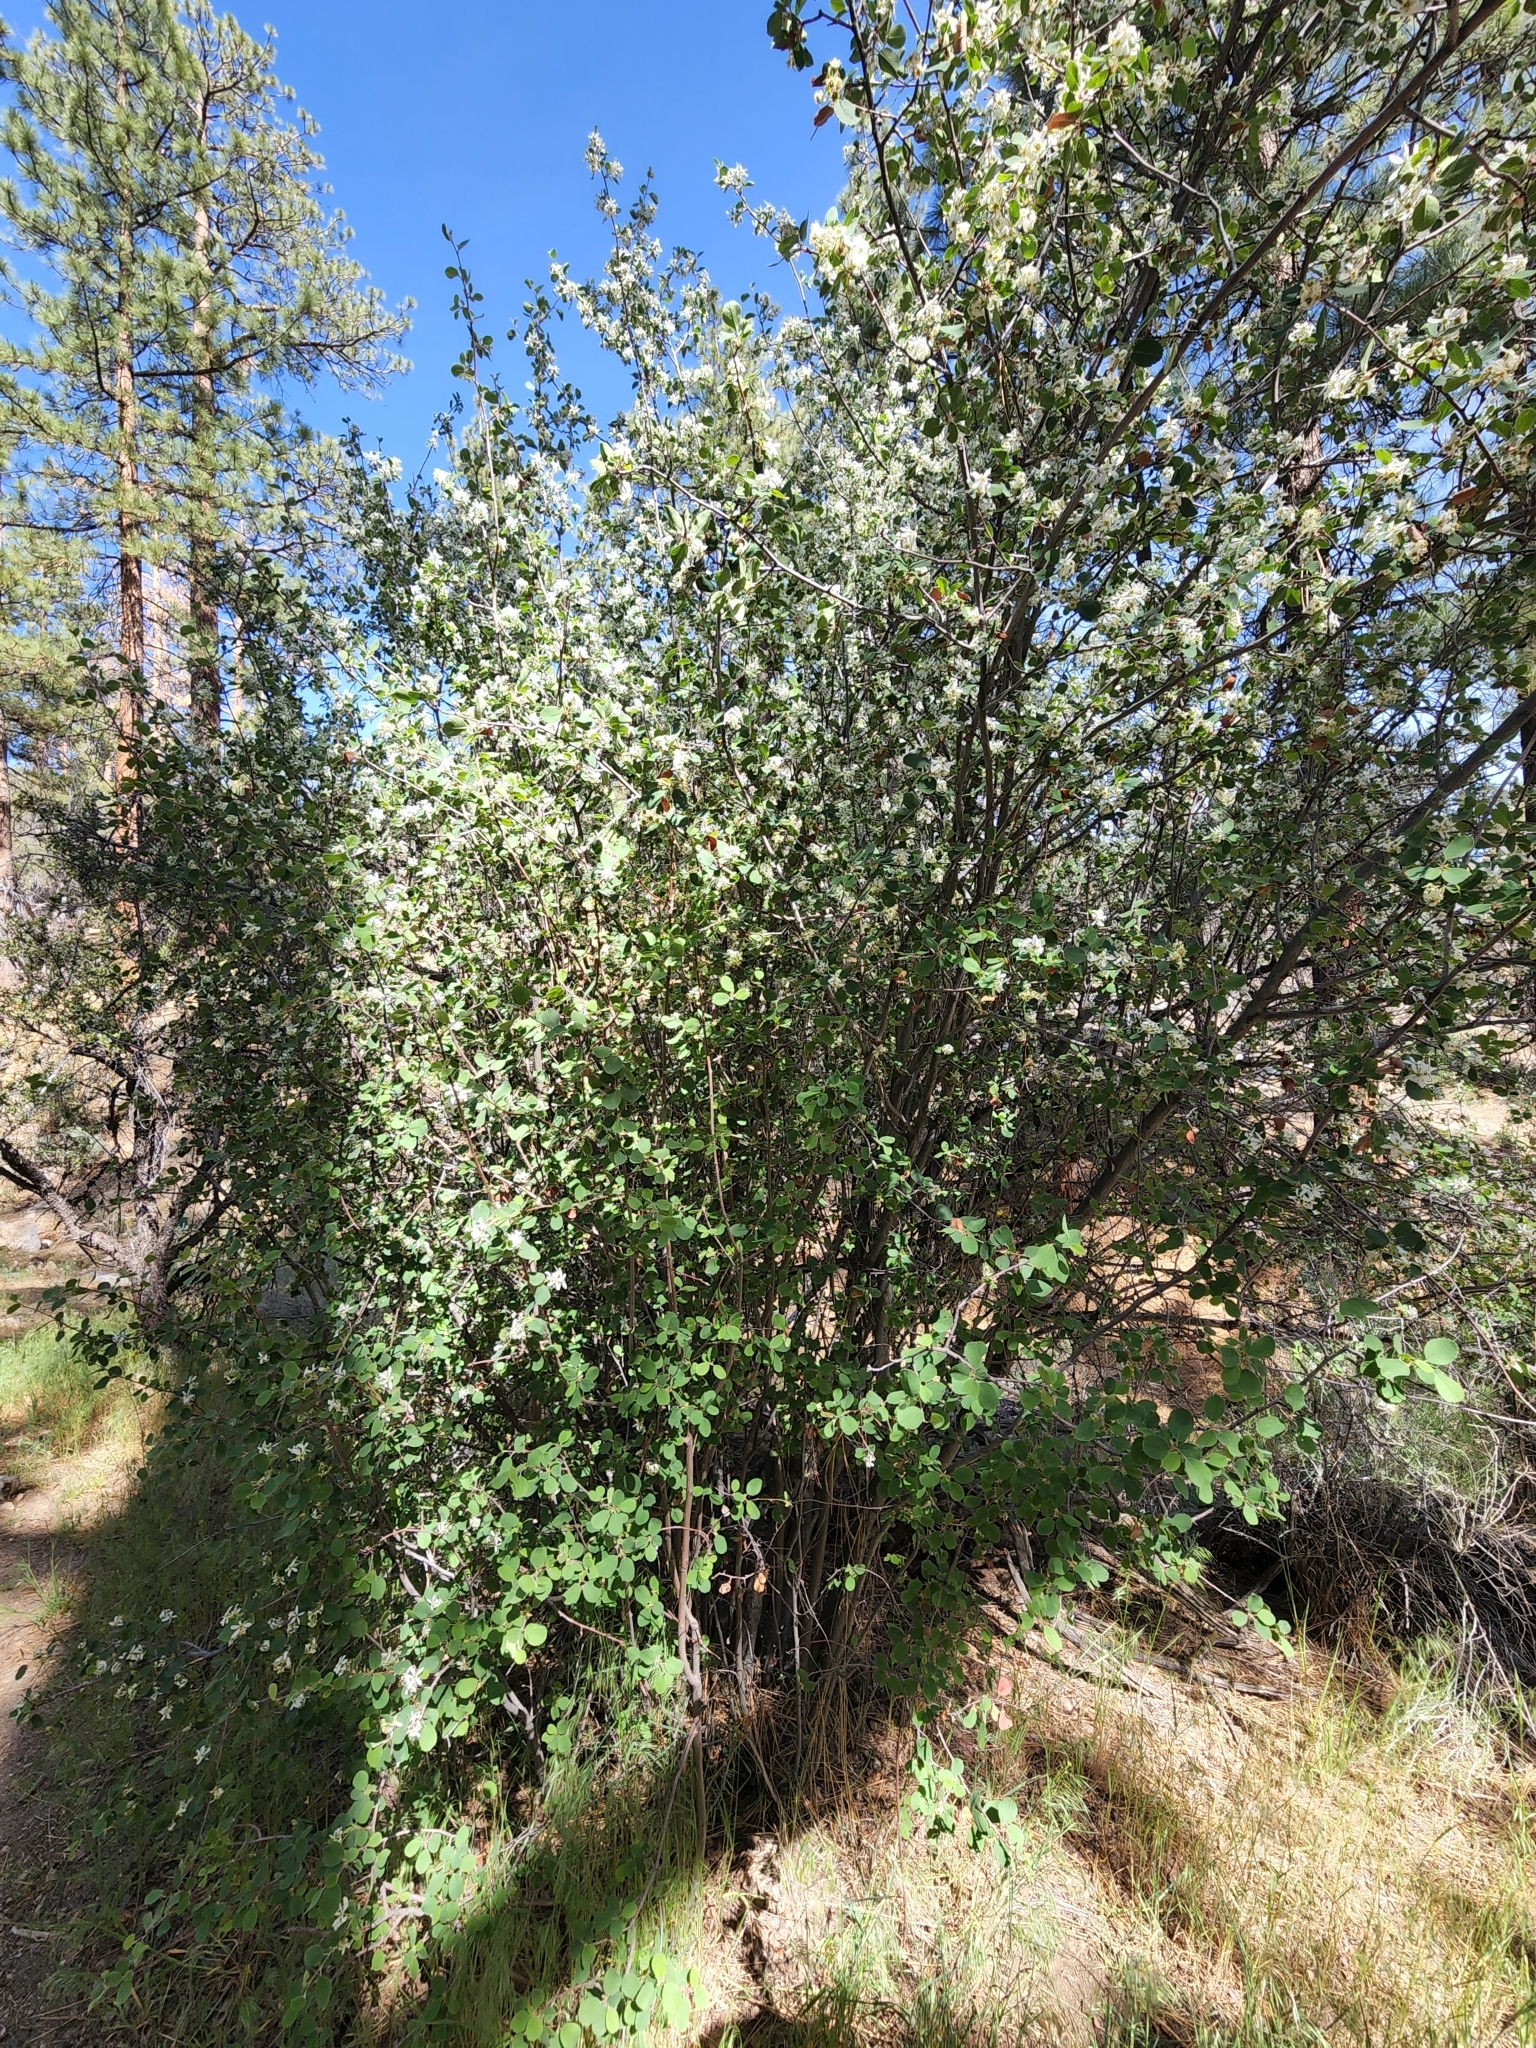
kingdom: Plantae
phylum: Tracheophyta
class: Magnoliopsida
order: Rosales
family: Rosaceae
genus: Amelanchier
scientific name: Amelanchier utahensis
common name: Utah serviceberry
